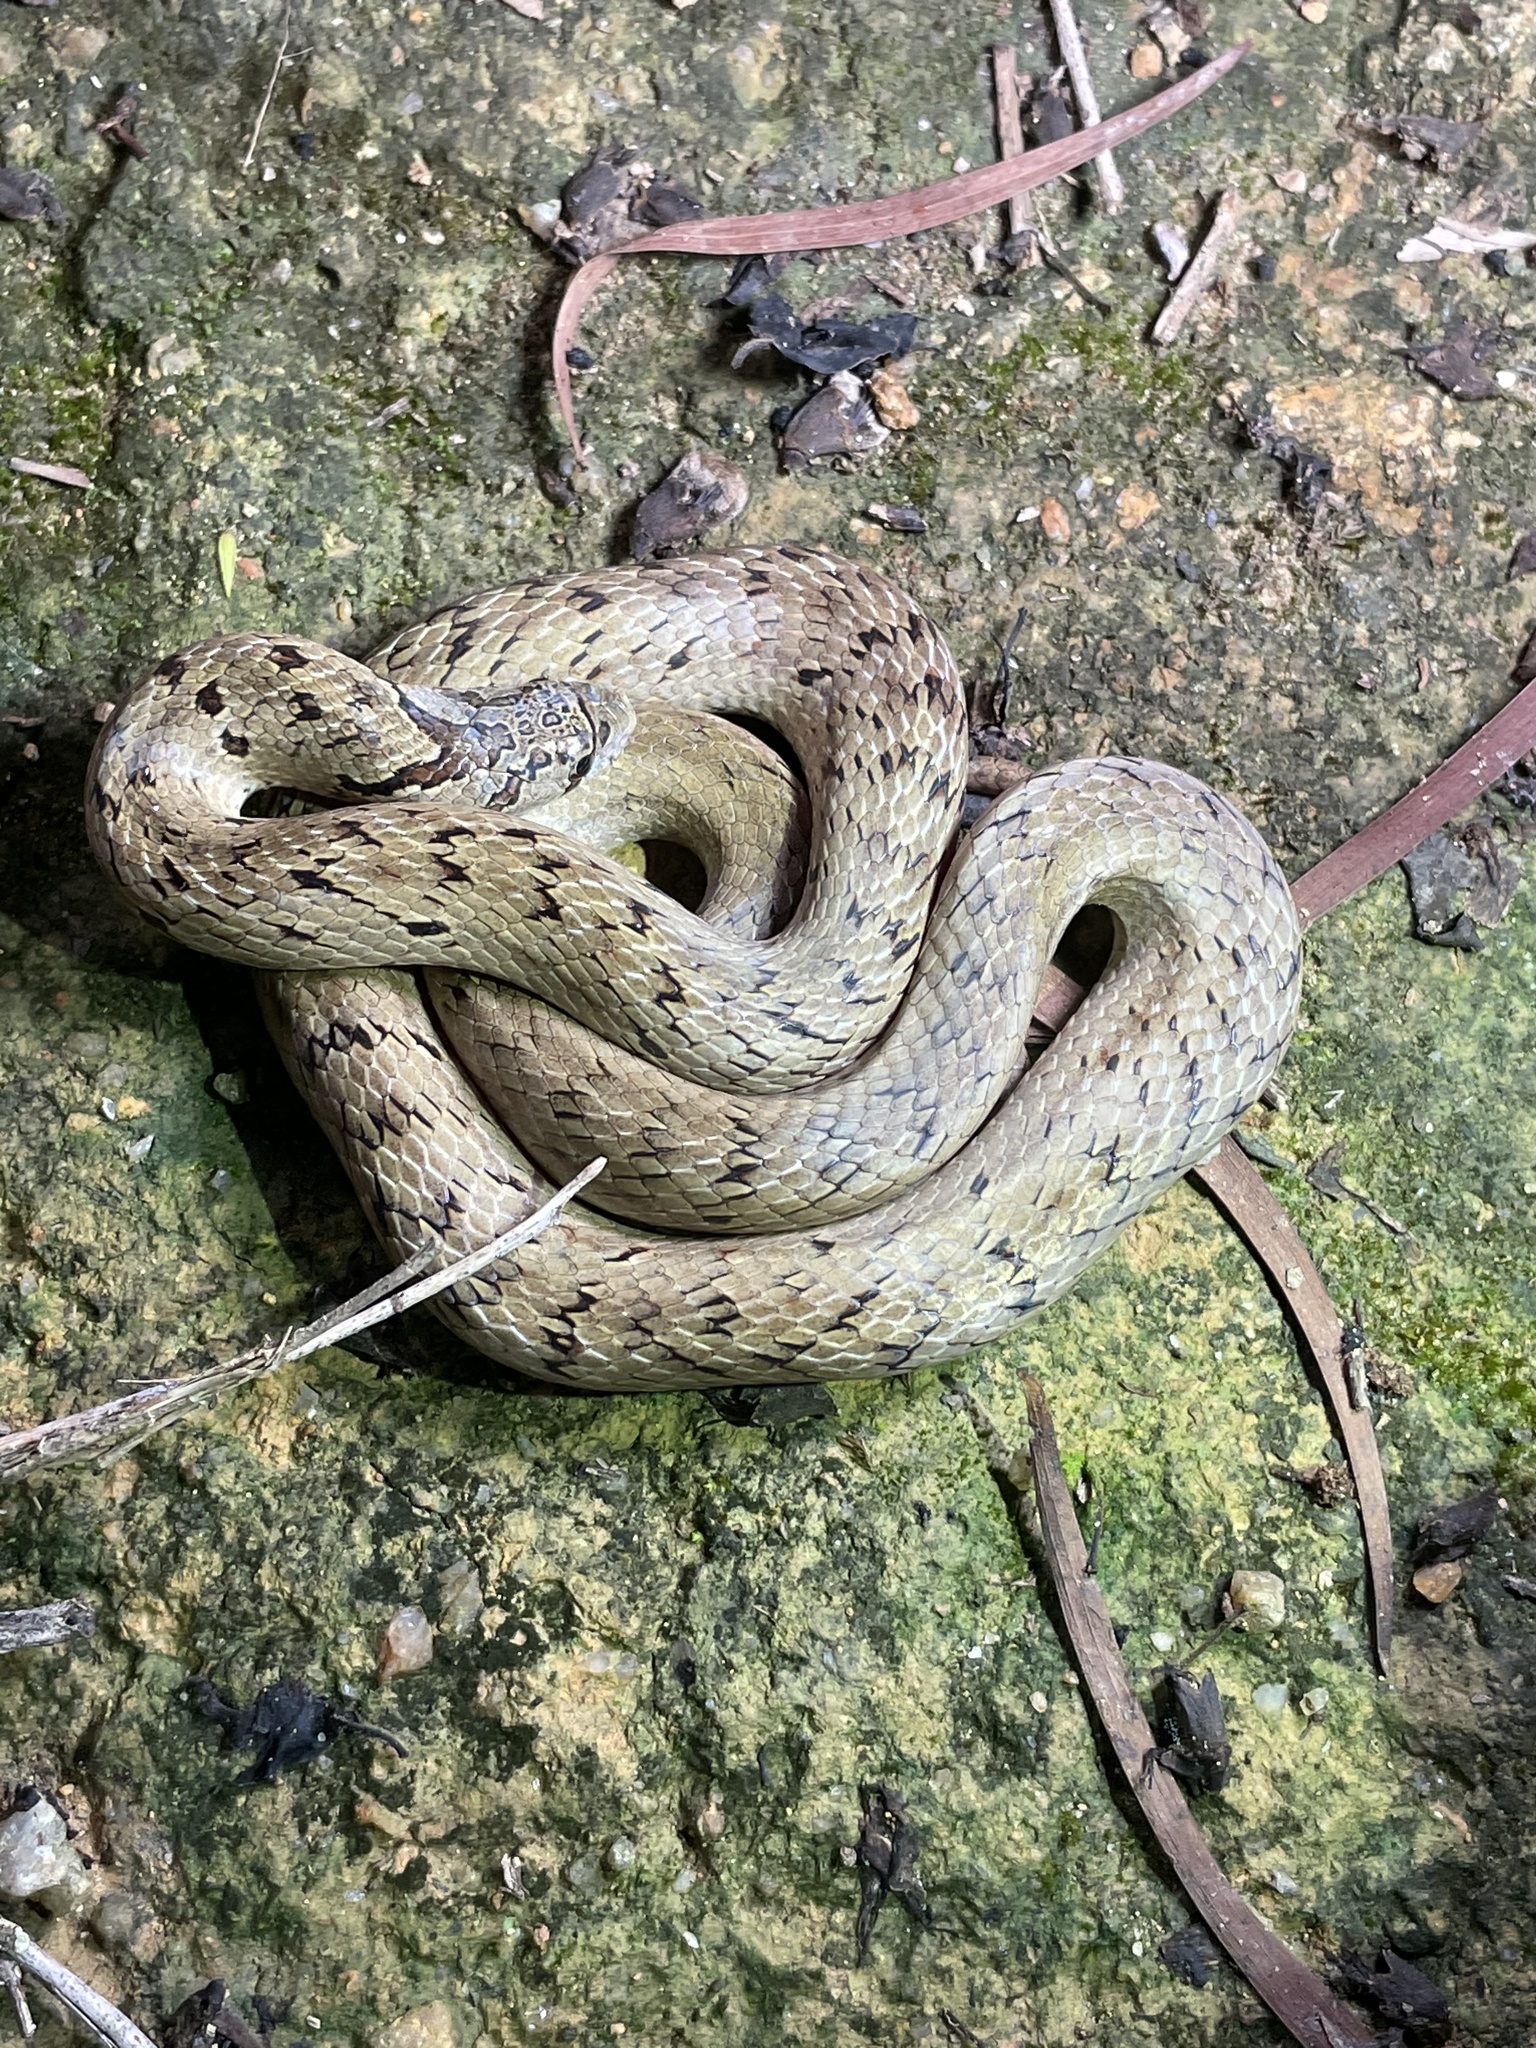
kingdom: Animalia
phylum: Chordata
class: Squamata
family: Colubridae
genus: Oligodon
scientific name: Oligodon formosanus
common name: Formosa kukri snake
